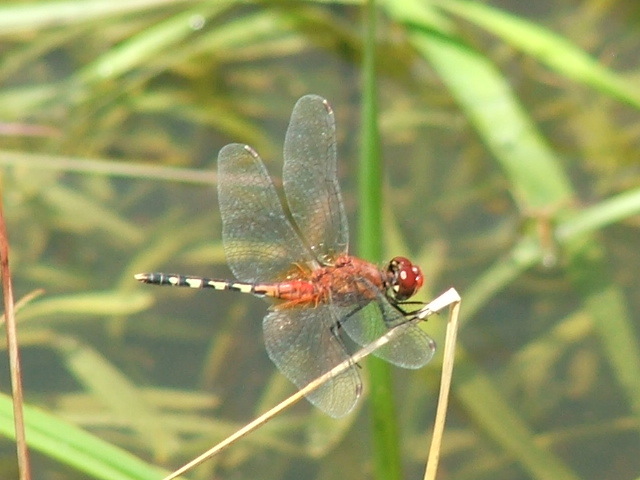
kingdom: Animalia
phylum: Arthropoda
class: Insecta
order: Odonata
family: Libellulidae
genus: Diplacodes
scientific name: Diplacodes luminans
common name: Barbet percher
